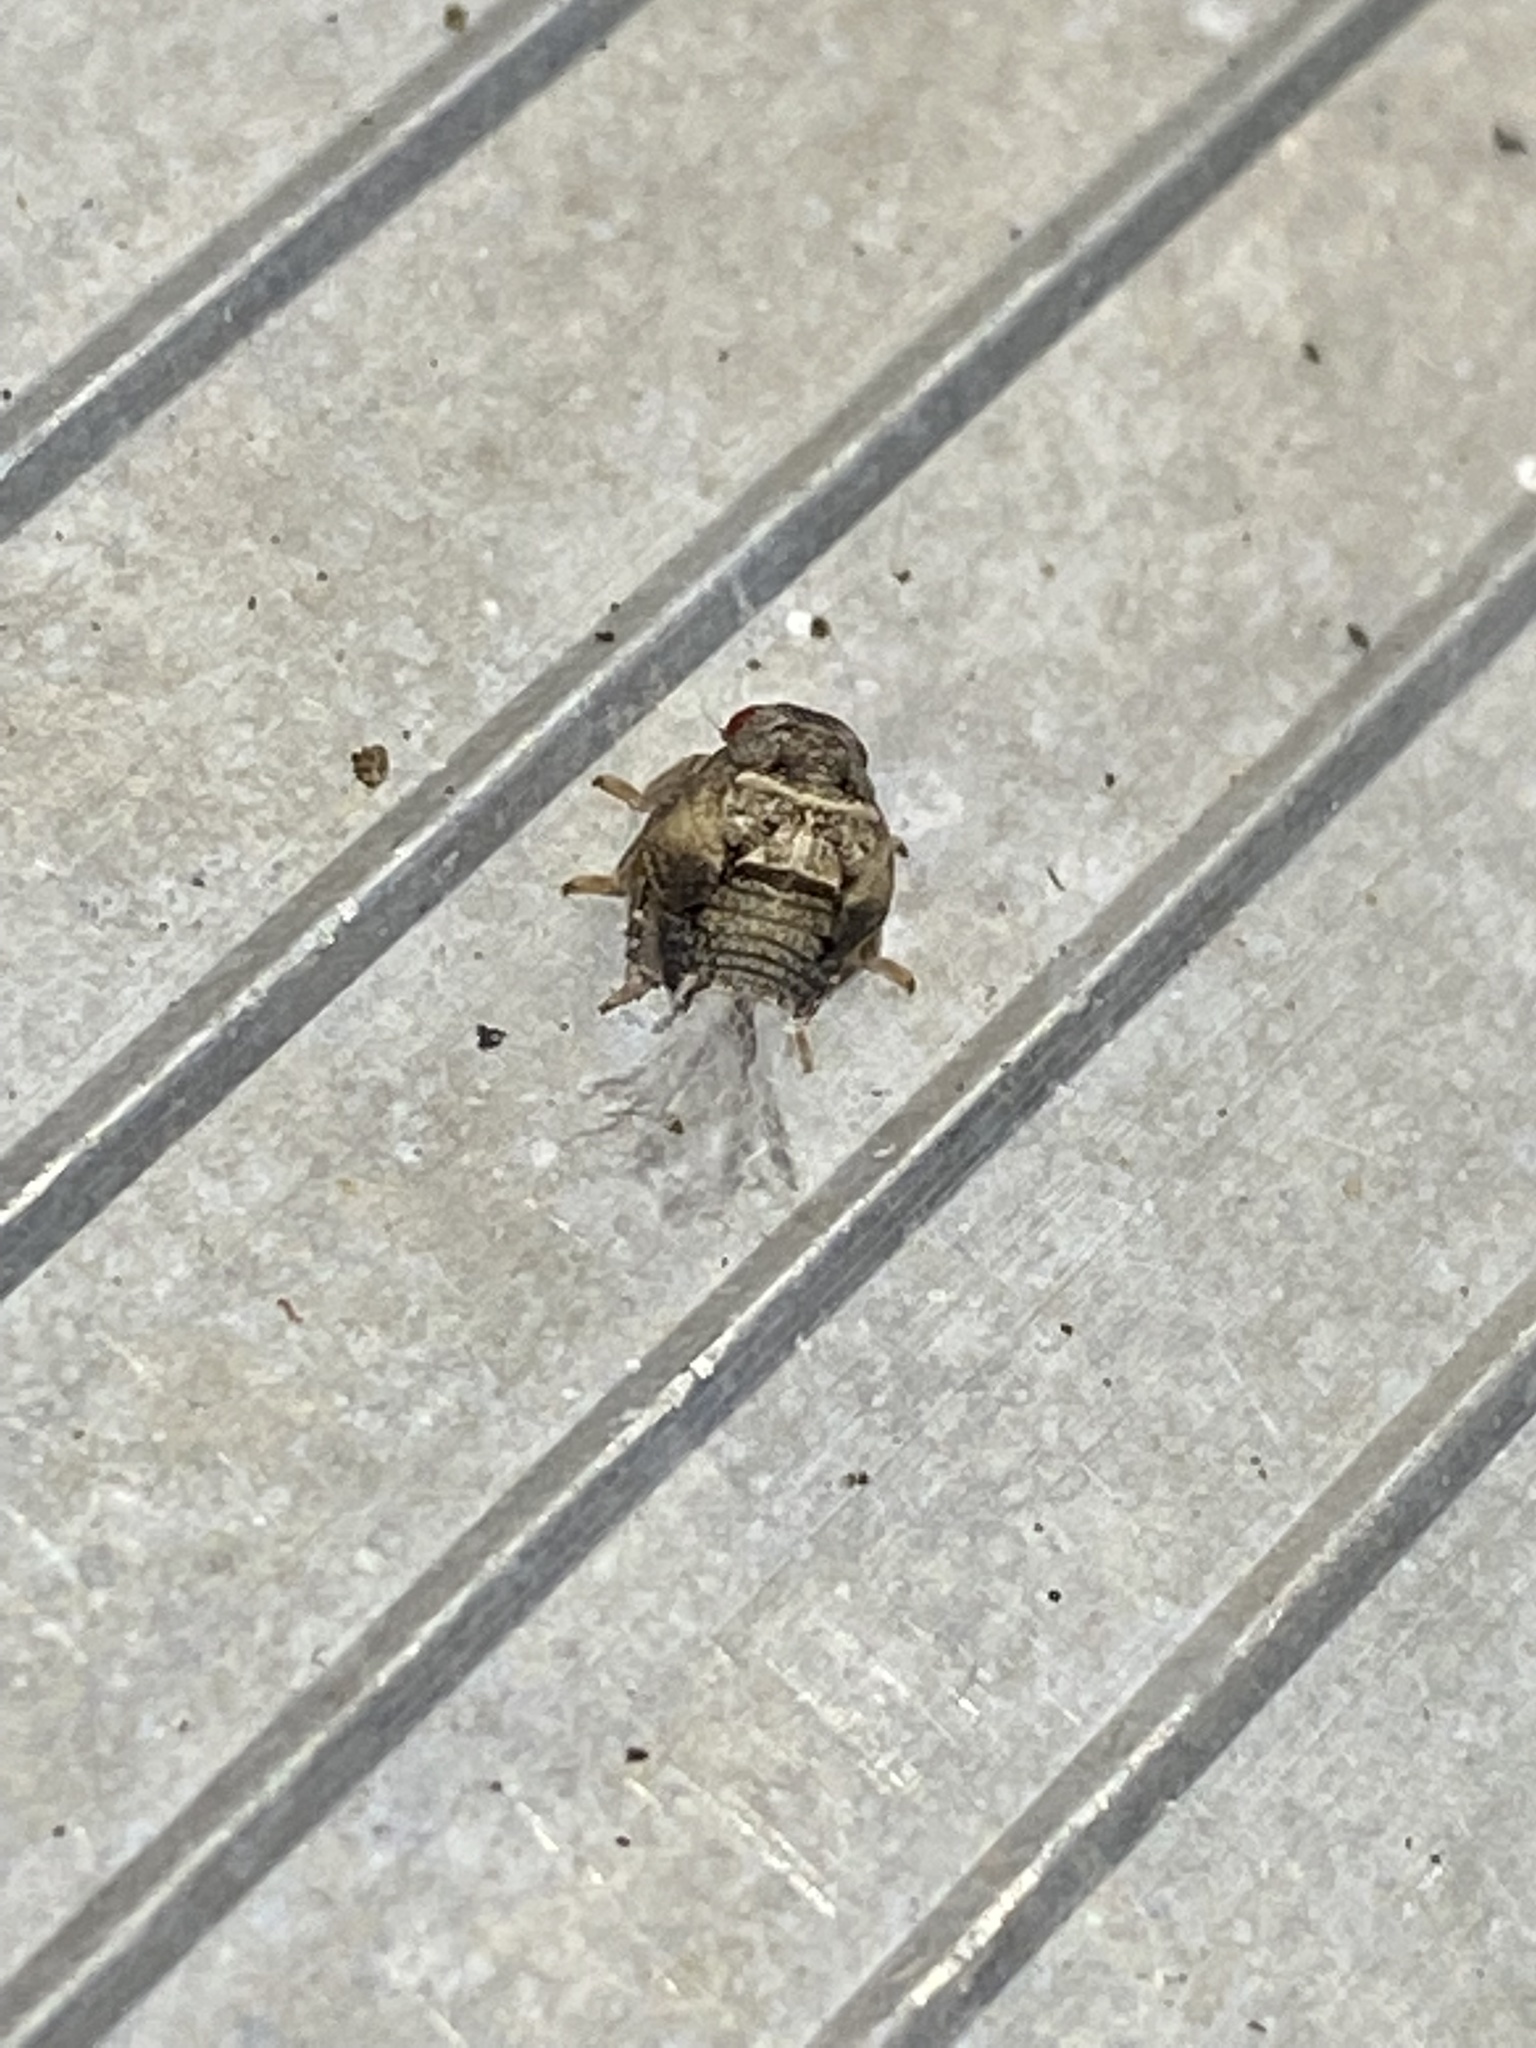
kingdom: Animalia
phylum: Arthropoda
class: Insecta
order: Hemiptera
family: Acanaloniidae
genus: Acanalonia
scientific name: Acanalonia bivittata
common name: Two-striped planthopper
